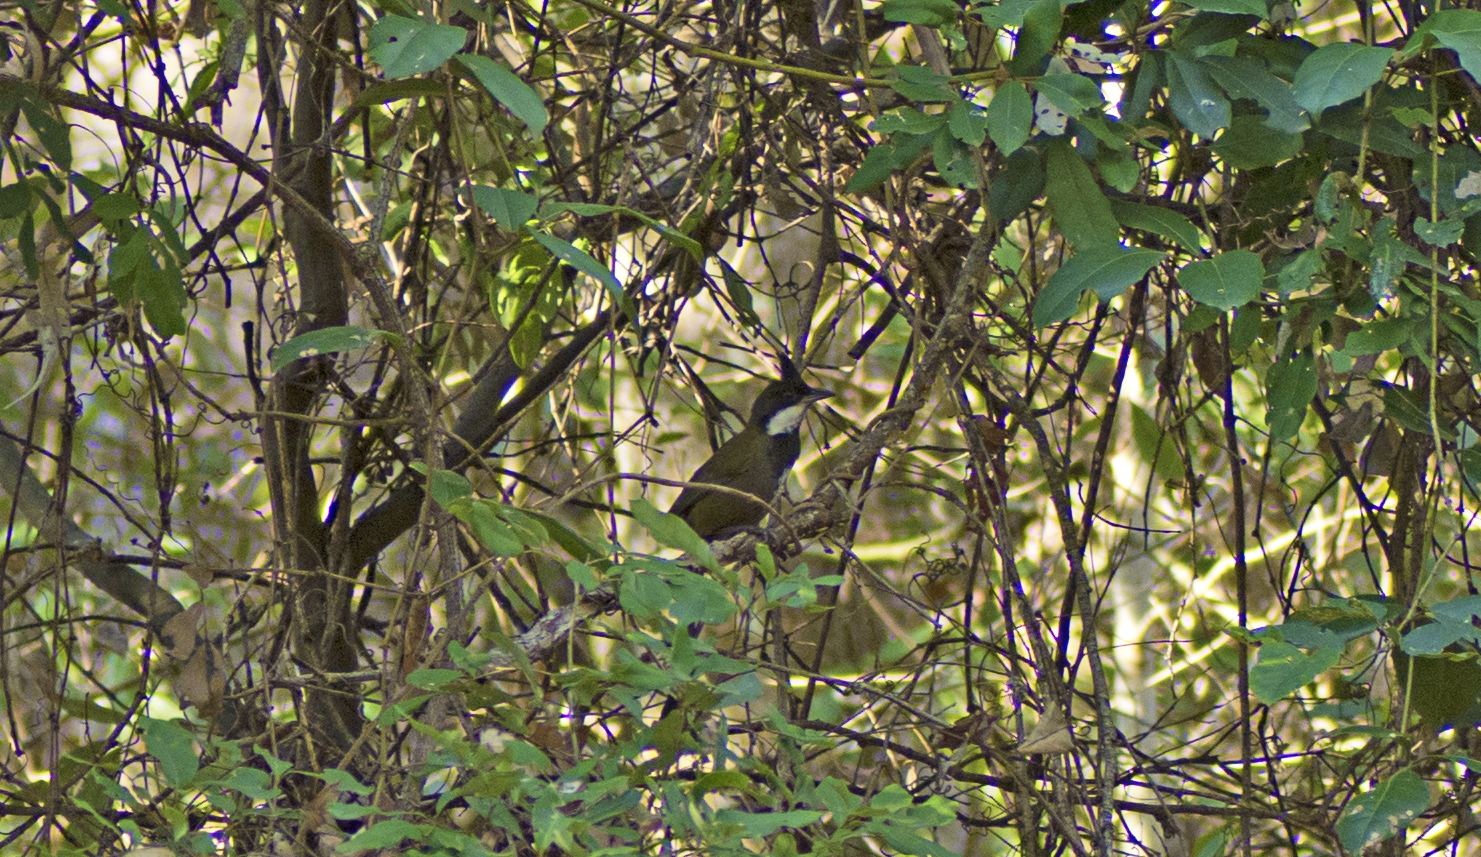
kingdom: Animalia
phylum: Chordata
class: Aves
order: Passeriformes
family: Psophodidae
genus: Psophodes
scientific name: Psophodes olivaceus
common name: Eastern whipbird
